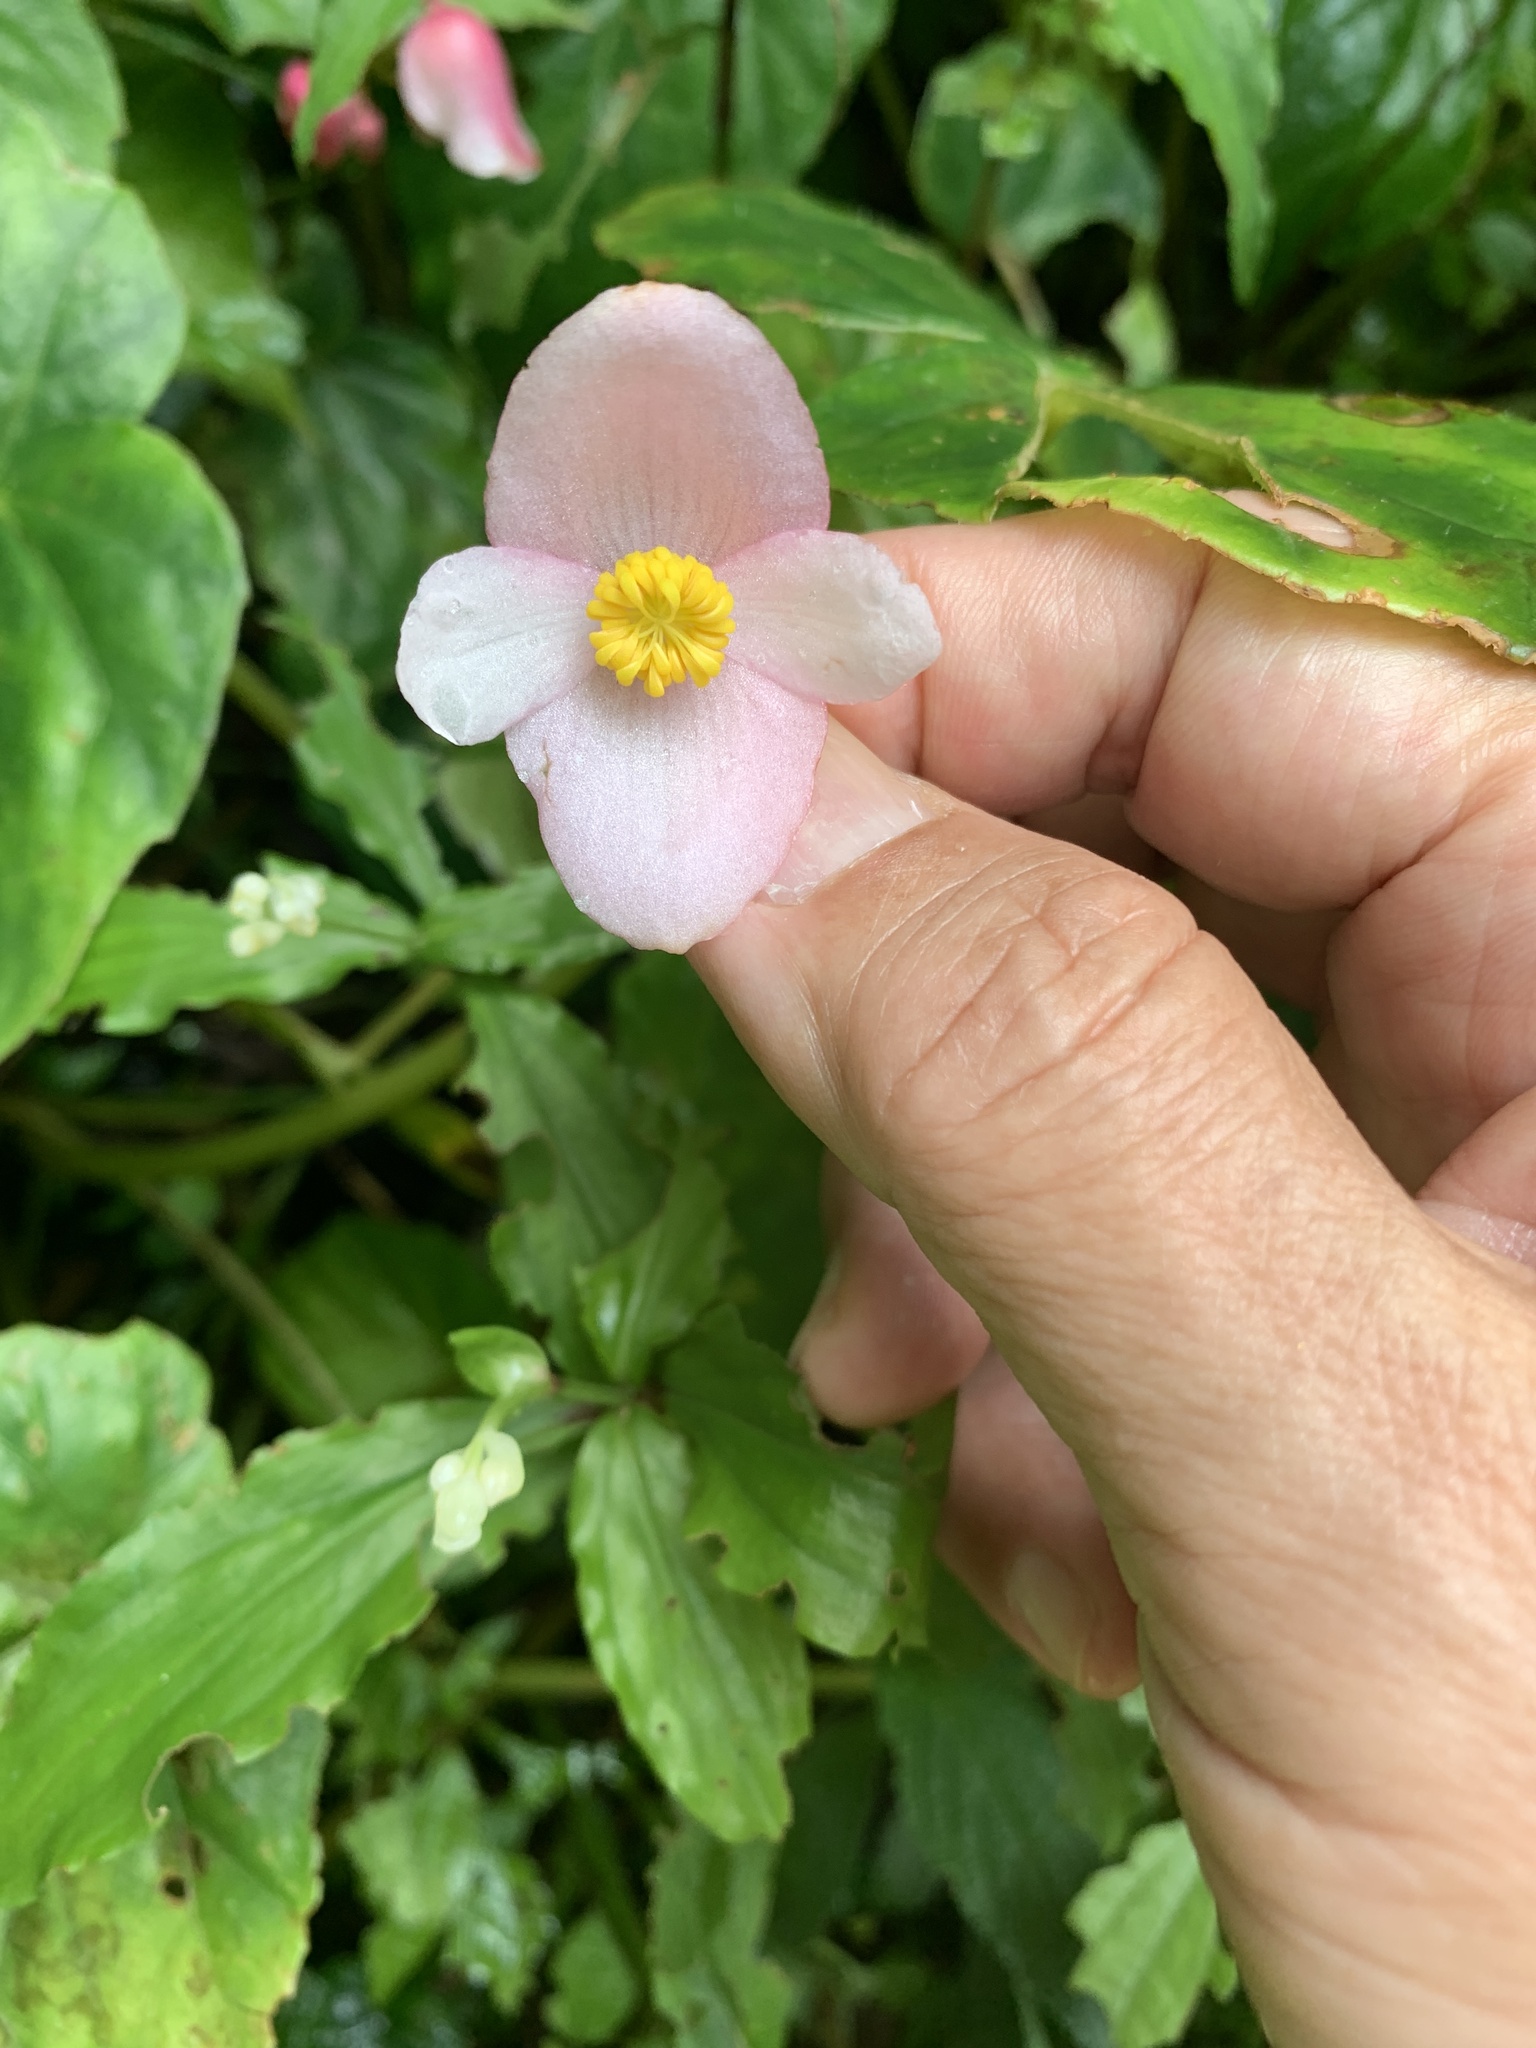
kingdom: Plantae
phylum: Tracheophyta
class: Magnoliopsida
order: Cucurbitales
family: Begoniaceae
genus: Begonia
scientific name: Begonia formosana
